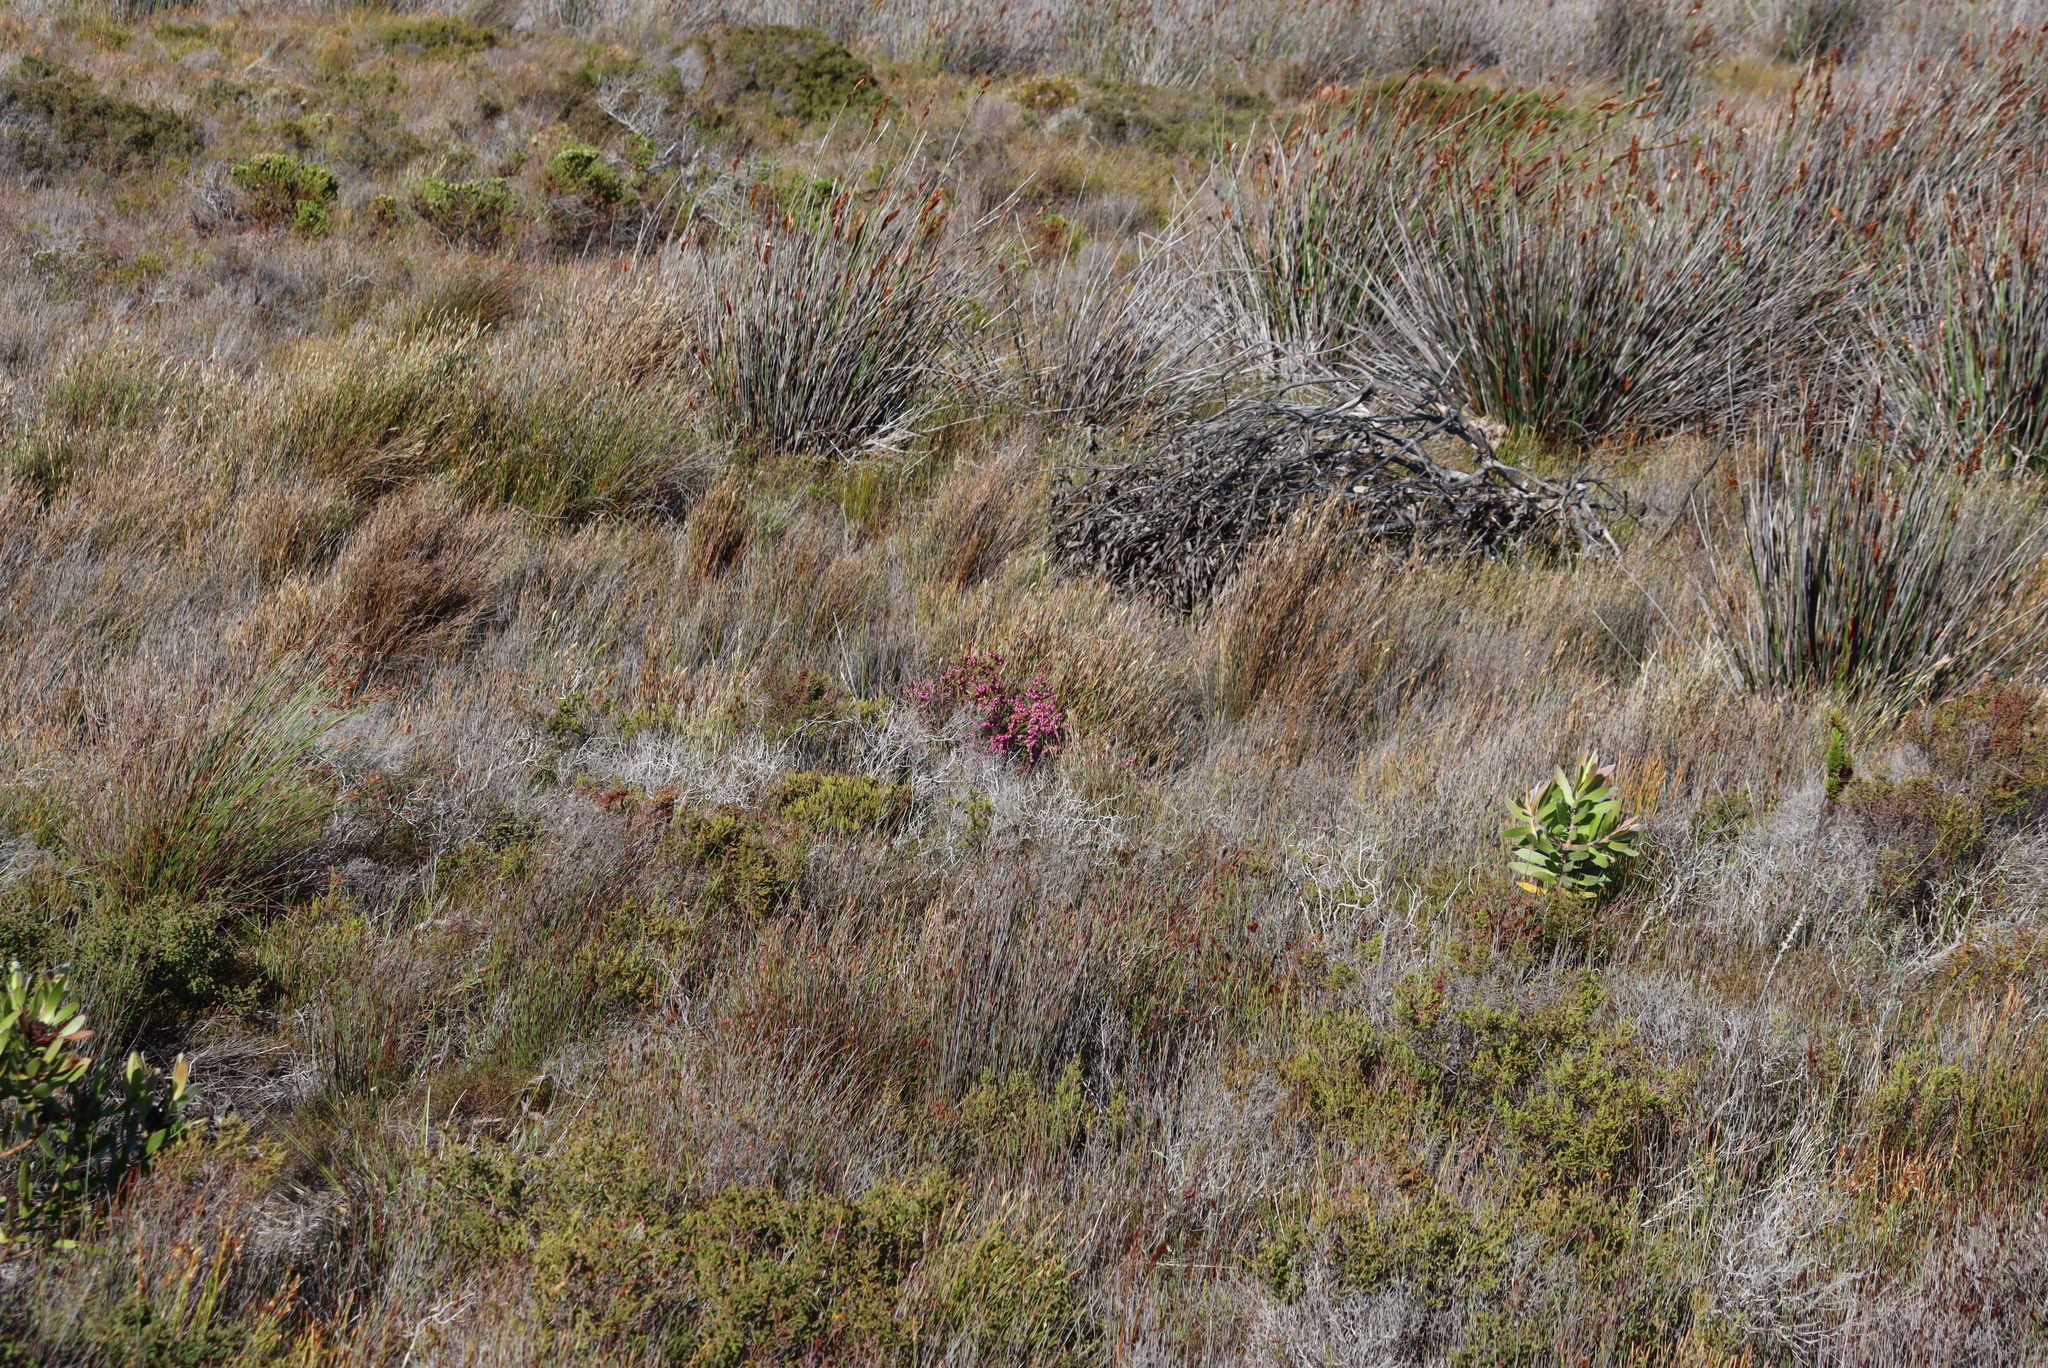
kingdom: Plantae
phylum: Tracheophyta
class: Magnoliopsida
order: Ericales
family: Ericaceae
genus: Erica
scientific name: Erica laeta
